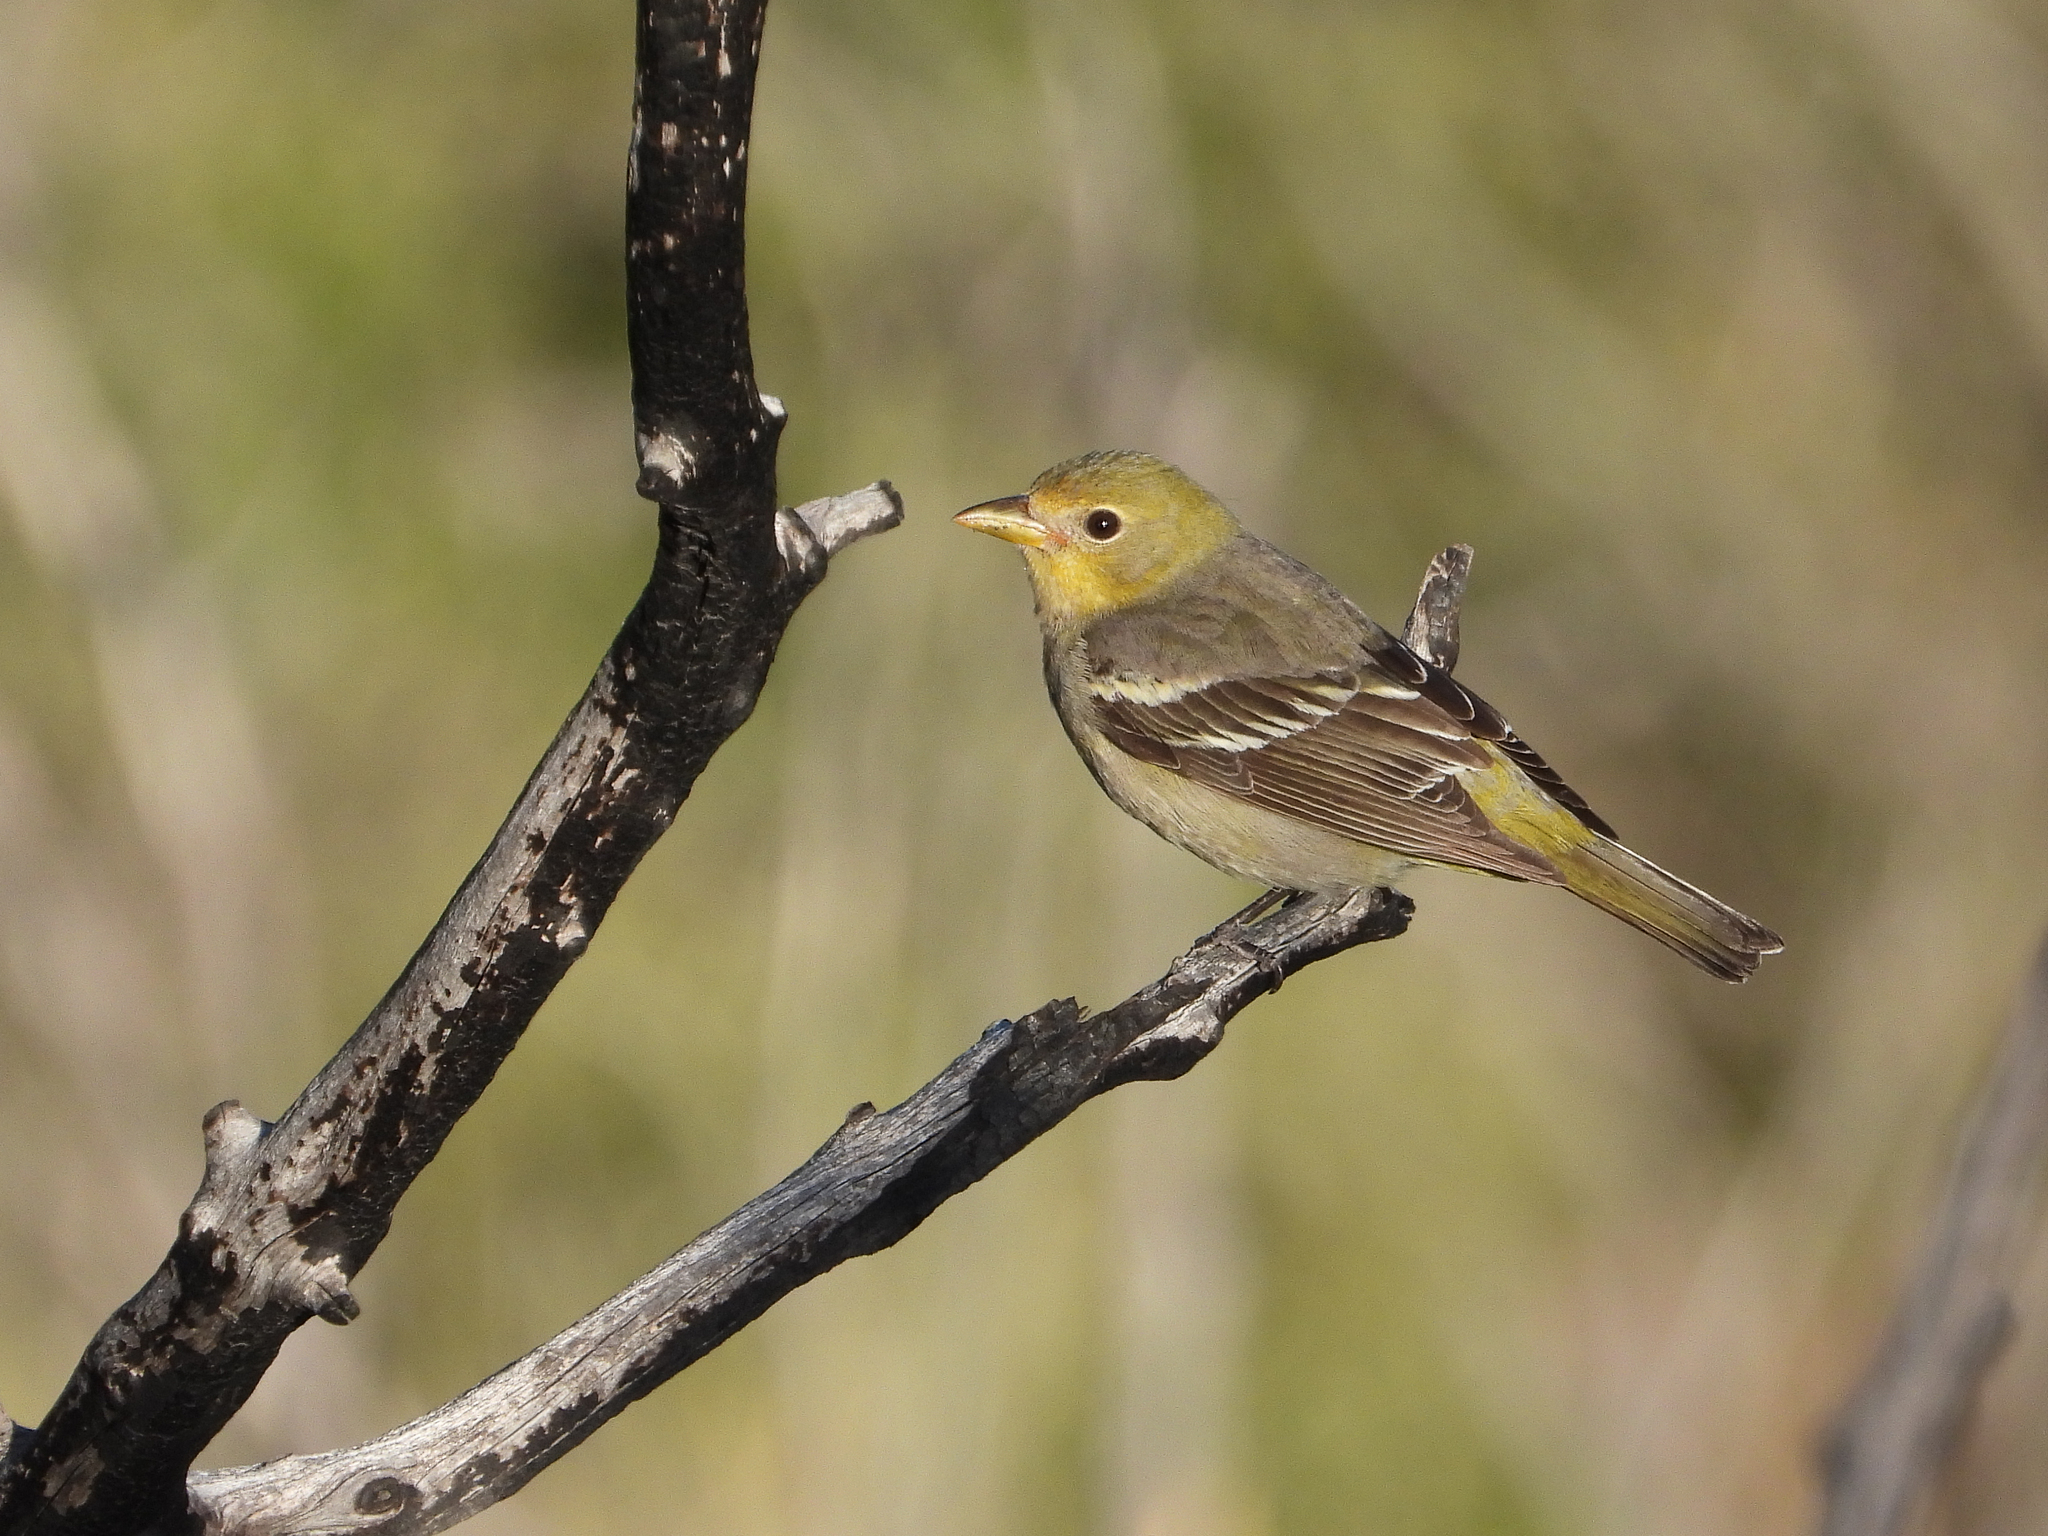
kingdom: Animalia
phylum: Chordata
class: Aves
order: Passeriformes
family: Cardinalidae
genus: Piranga
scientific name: Piranga ludoviciana
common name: Western tanager
